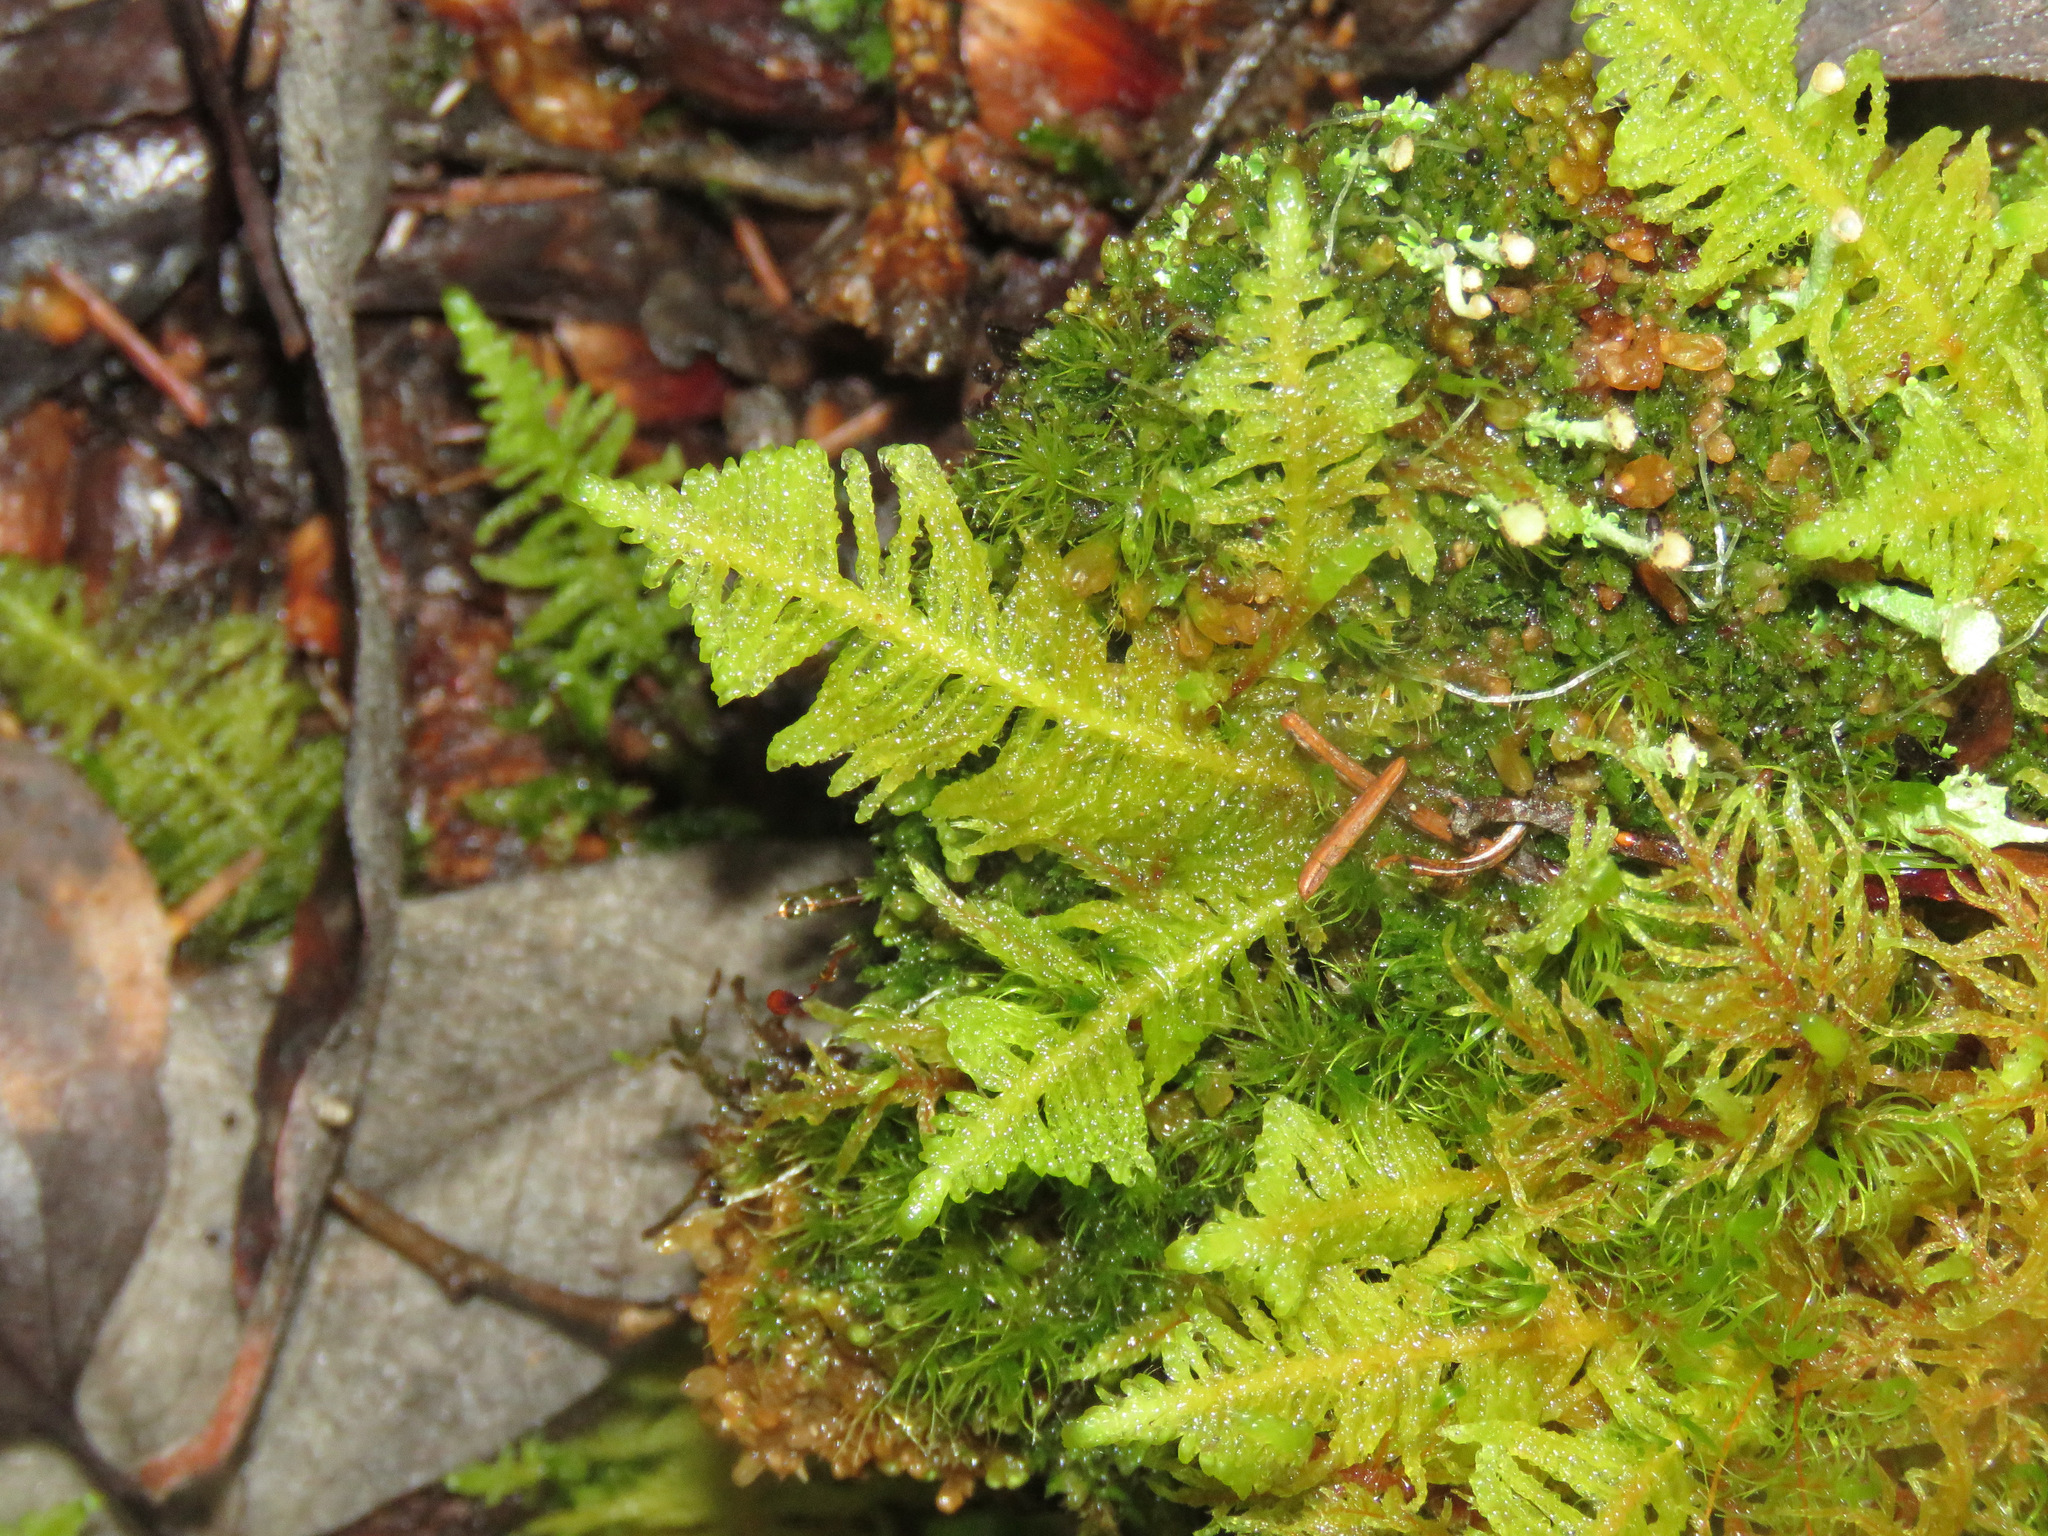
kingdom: Plantae
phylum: Bryophyta
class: Bryopsida
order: Hypnales
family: Pylaisiaceae
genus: Ptilium
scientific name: Ptilium crista-castrensis
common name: Knight's plume moss
